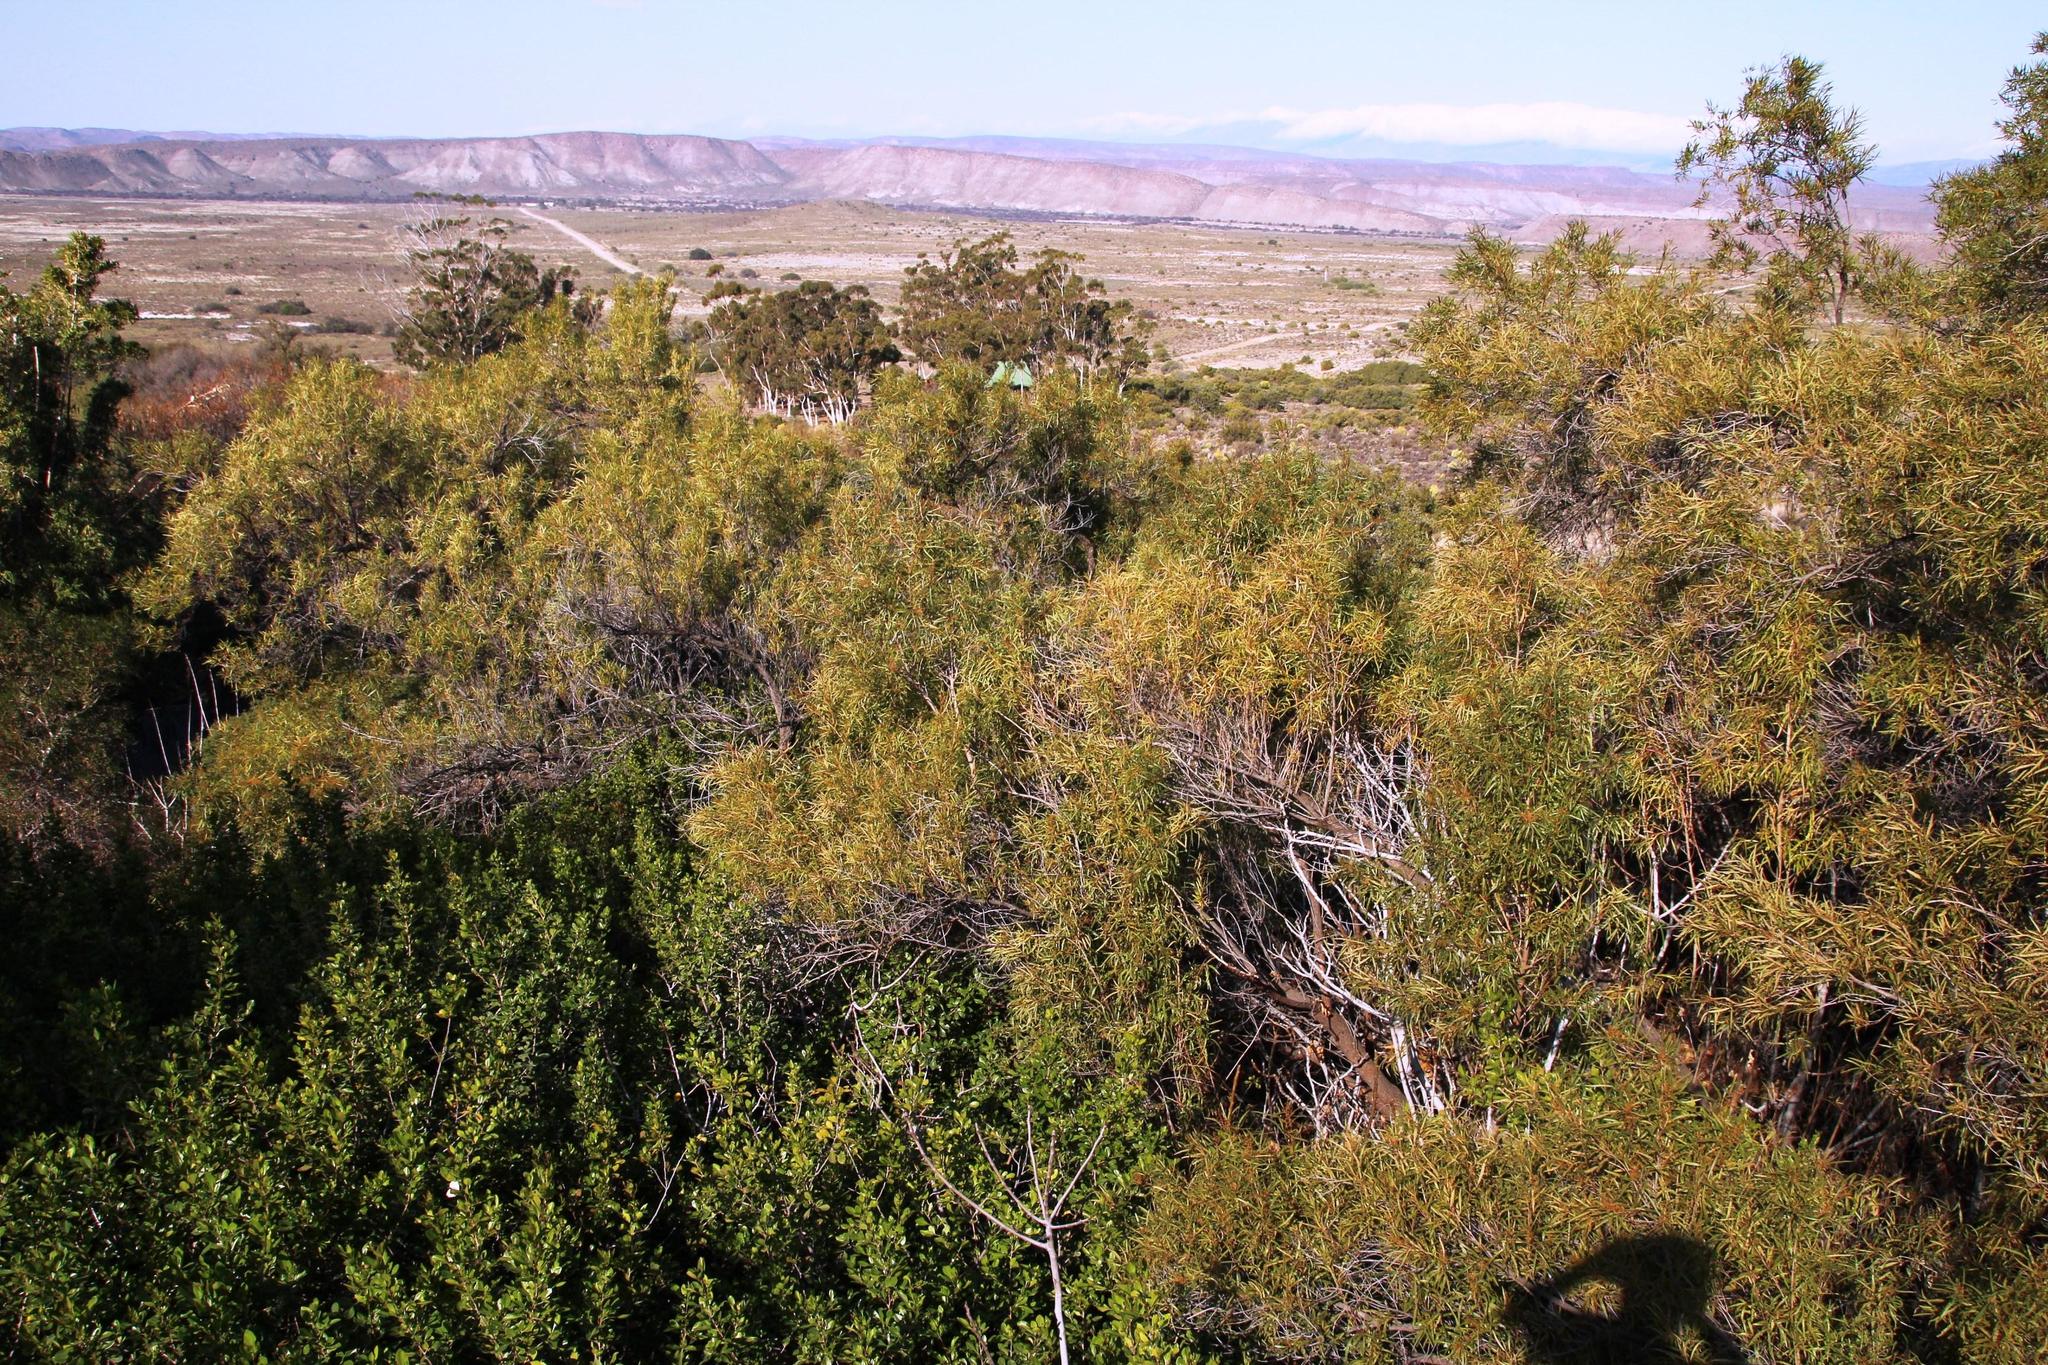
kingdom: Plantae
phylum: Tracheophyta
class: Magnoliopsida
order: Sapindales
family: Anacardiaceae
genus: Searsia
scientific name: Searsia lancea
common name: Cashew
